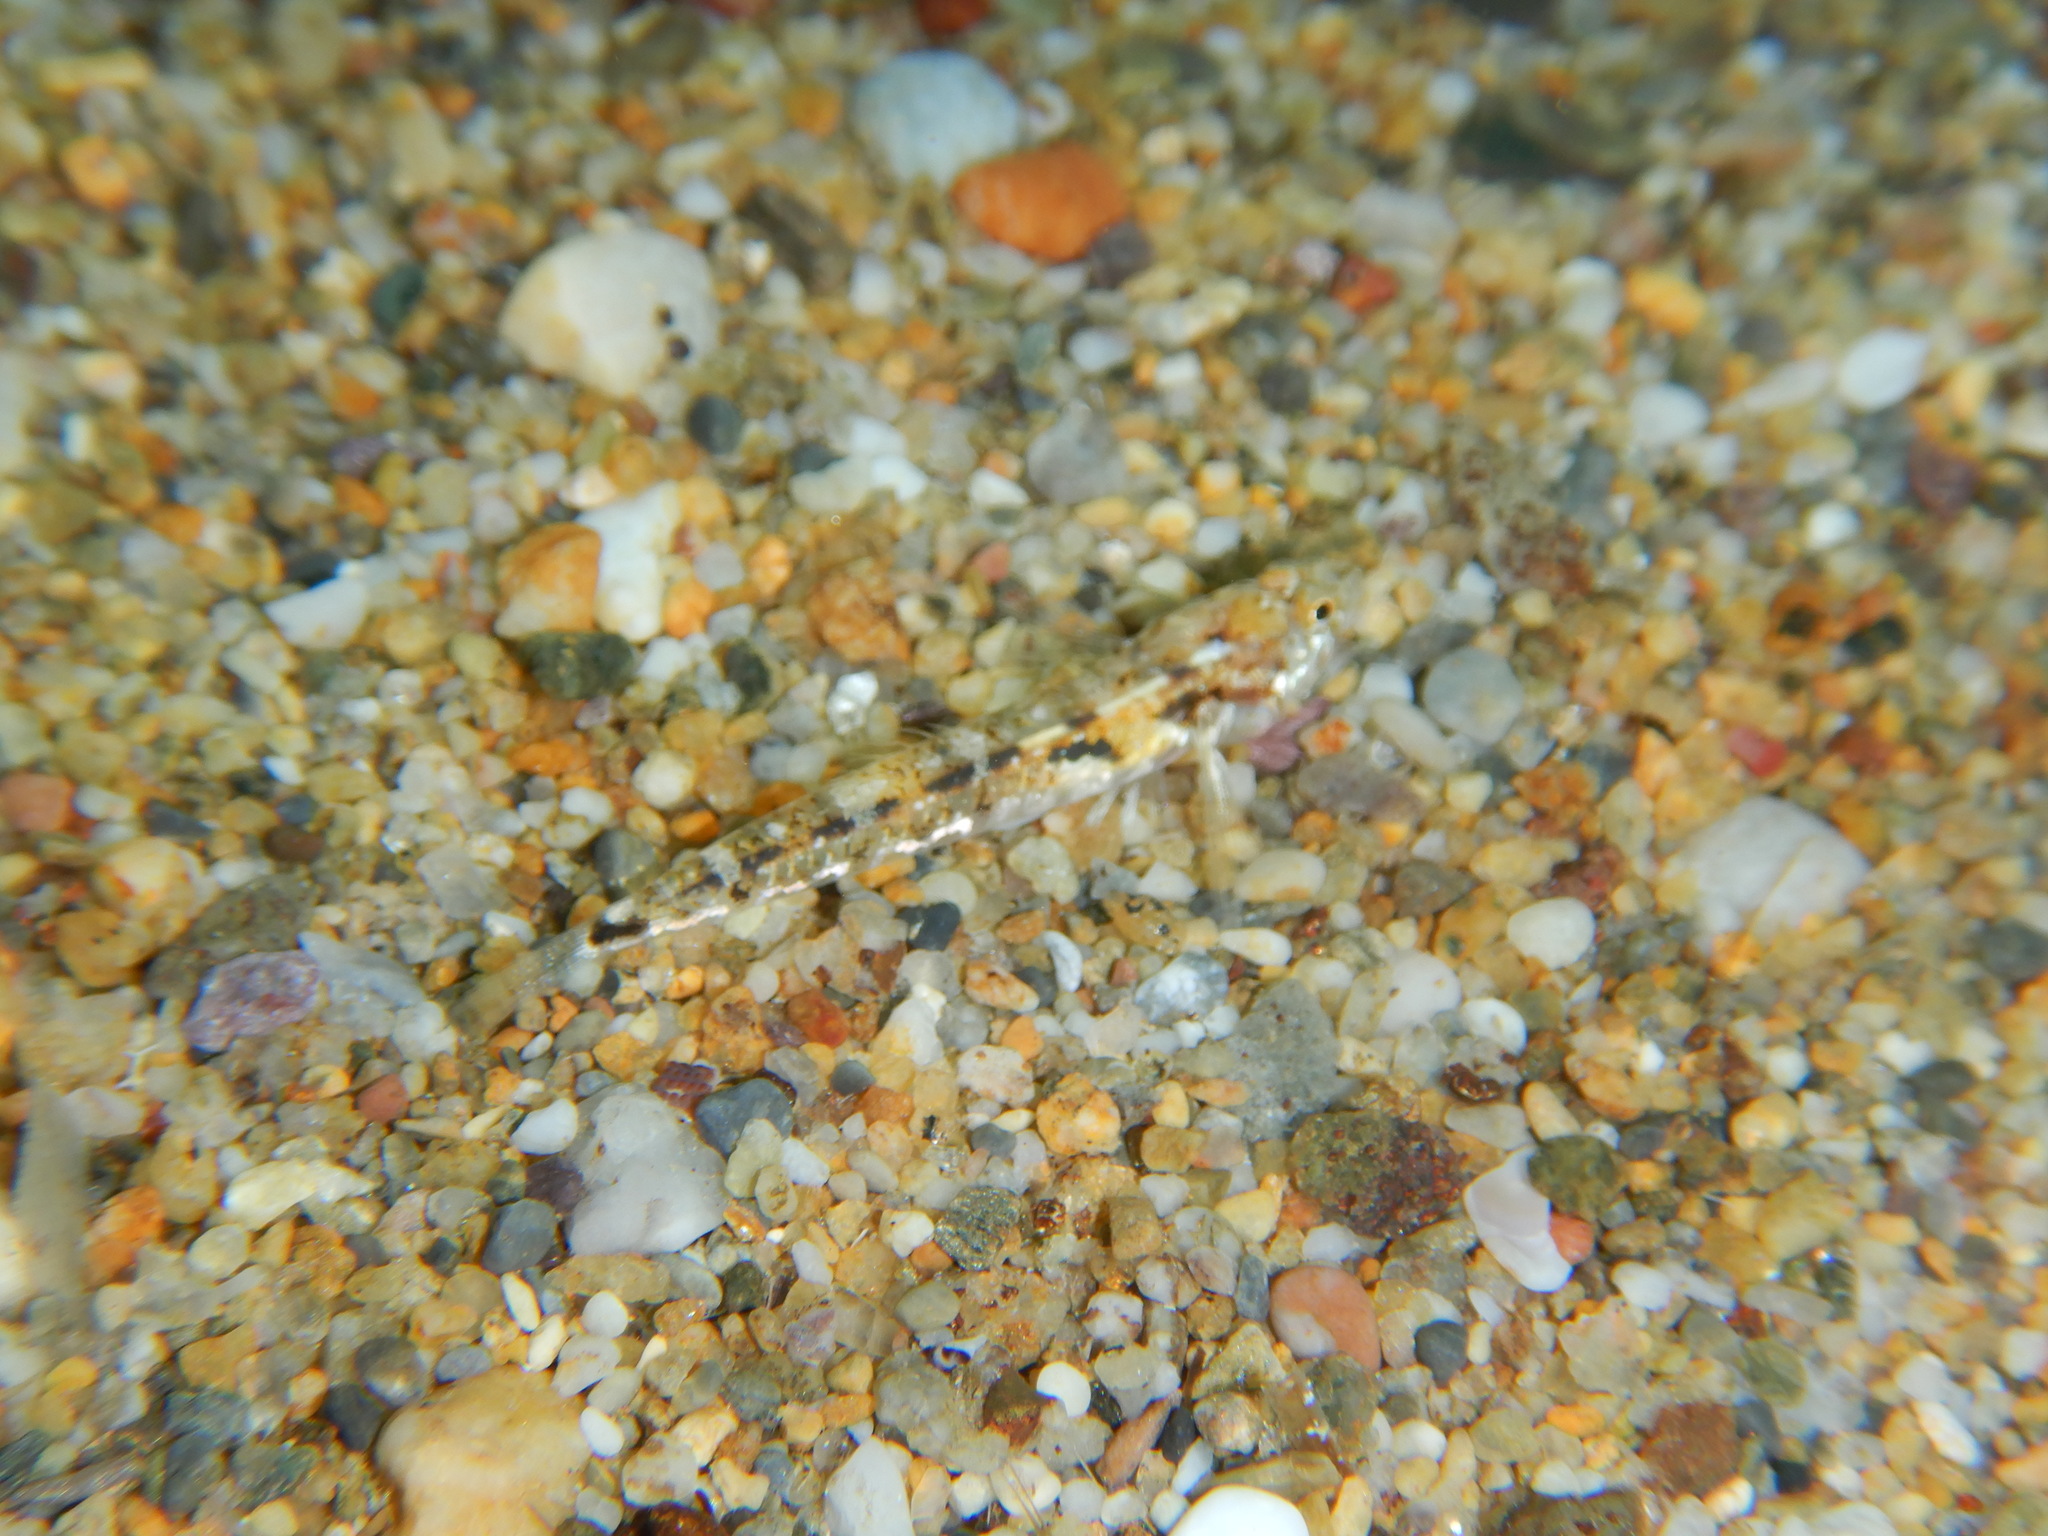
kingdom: Animalia
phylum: Chordata
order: Perciformes
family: Gobiidae
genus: Pomatoschistus
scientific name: Pomatoschistus bathi
